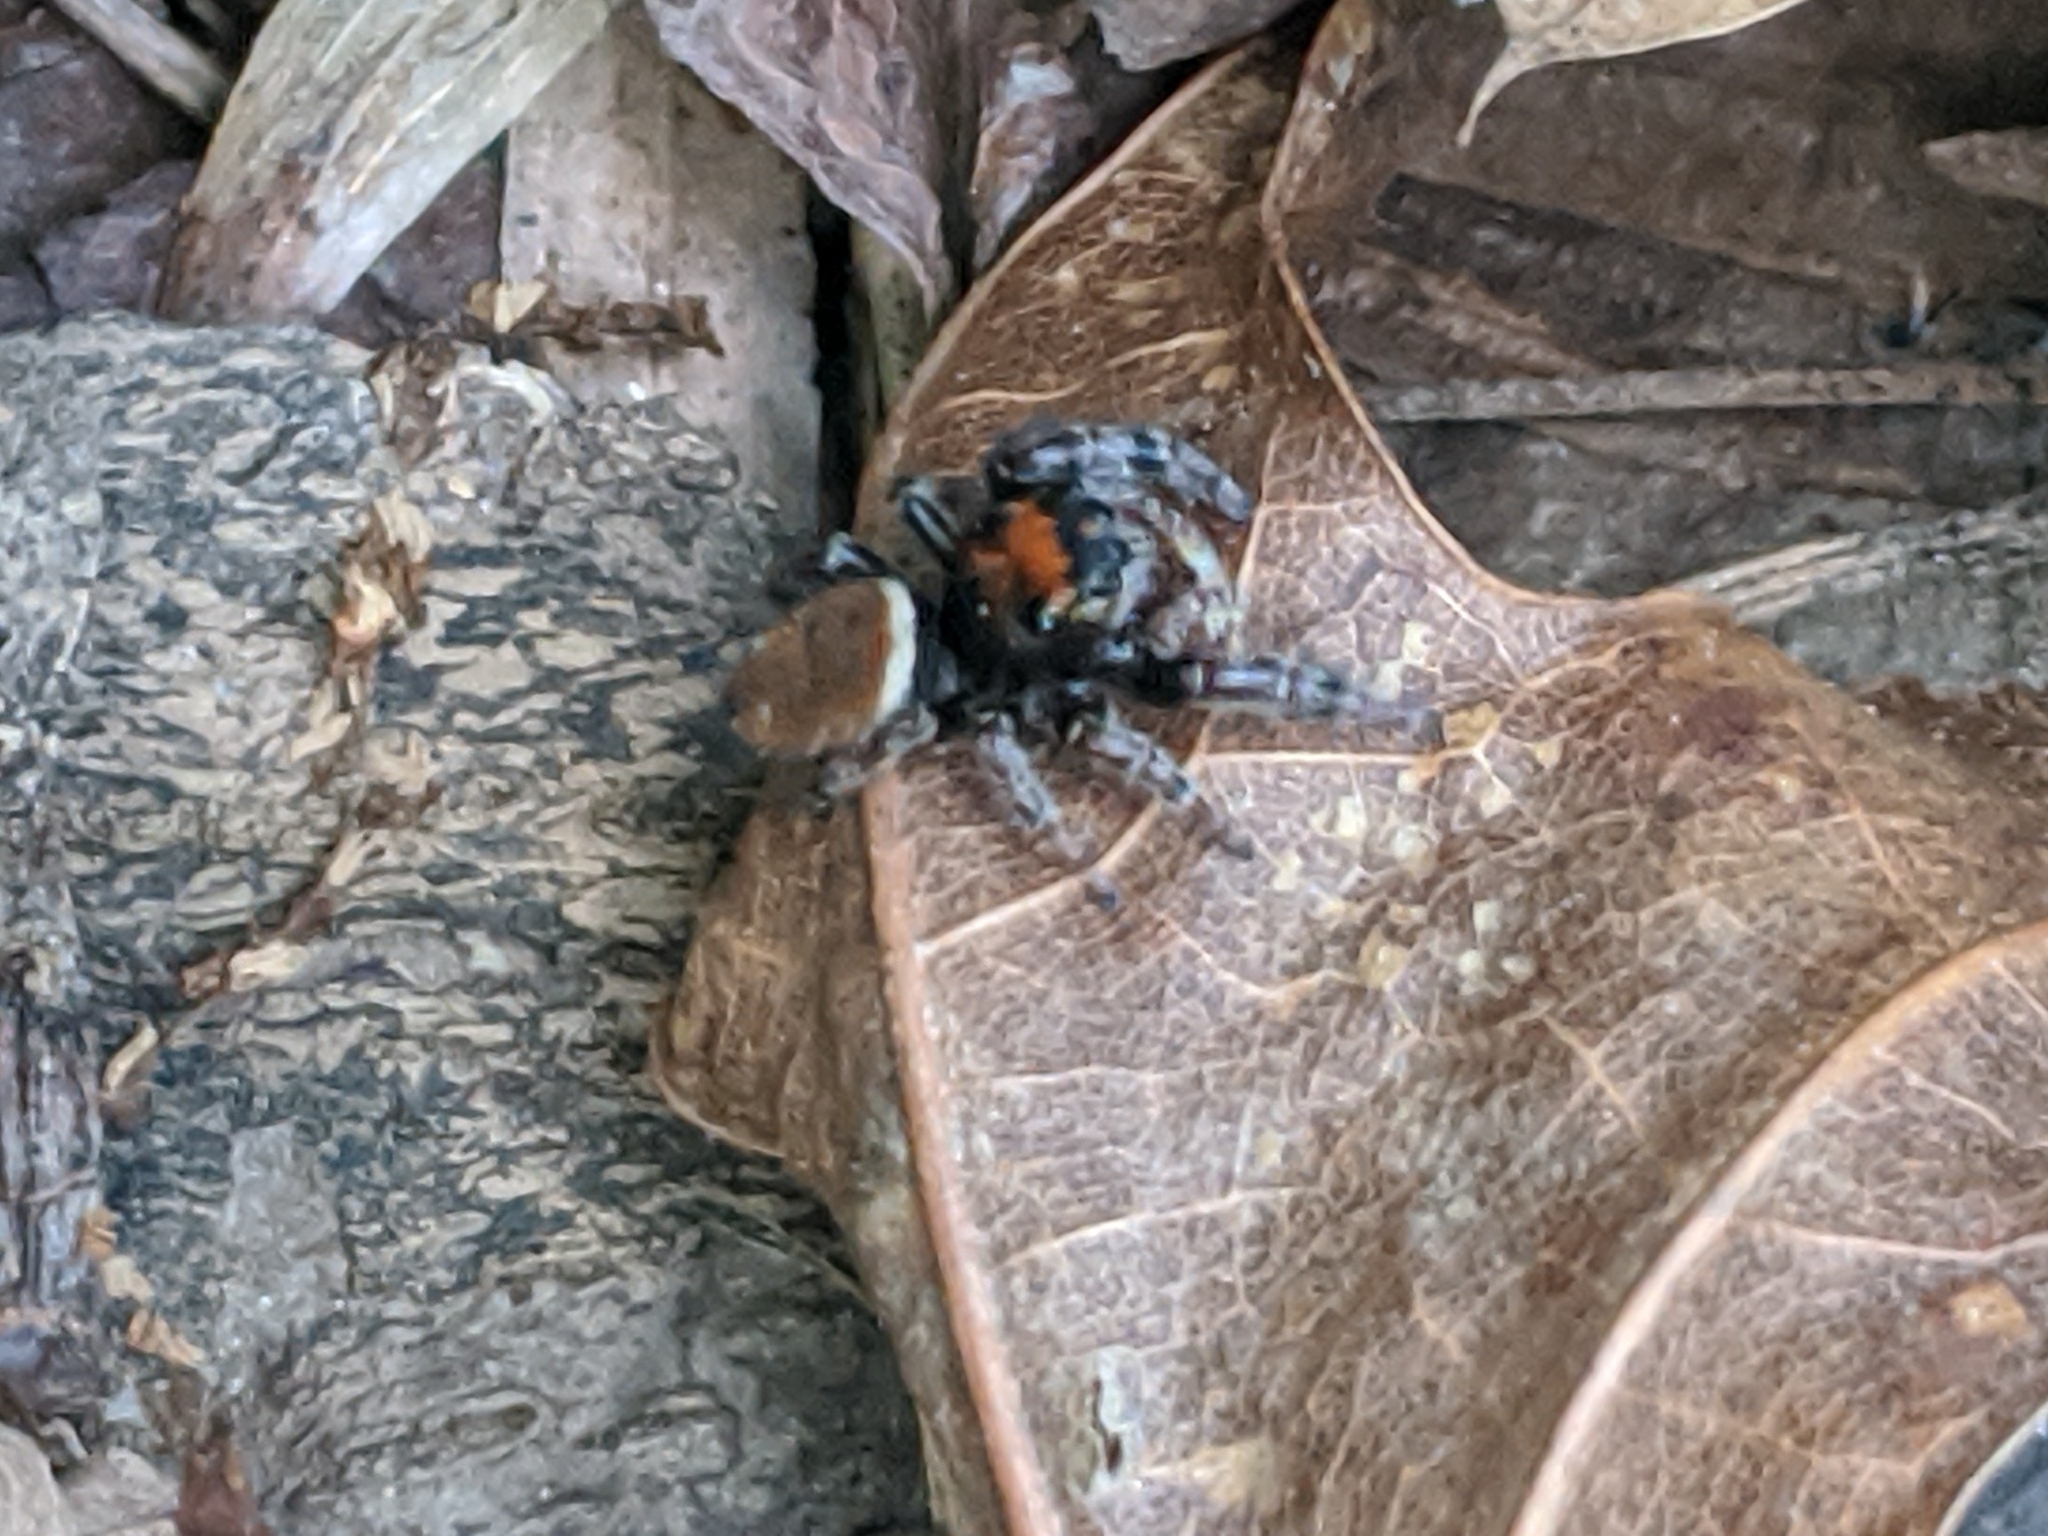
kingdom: Animalia
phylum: Arthropoda
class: Arachnida
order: Araneae
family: Salticidae
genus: Phidippus
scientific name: Phidippus whitmani
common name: Whitman's jumping spider
